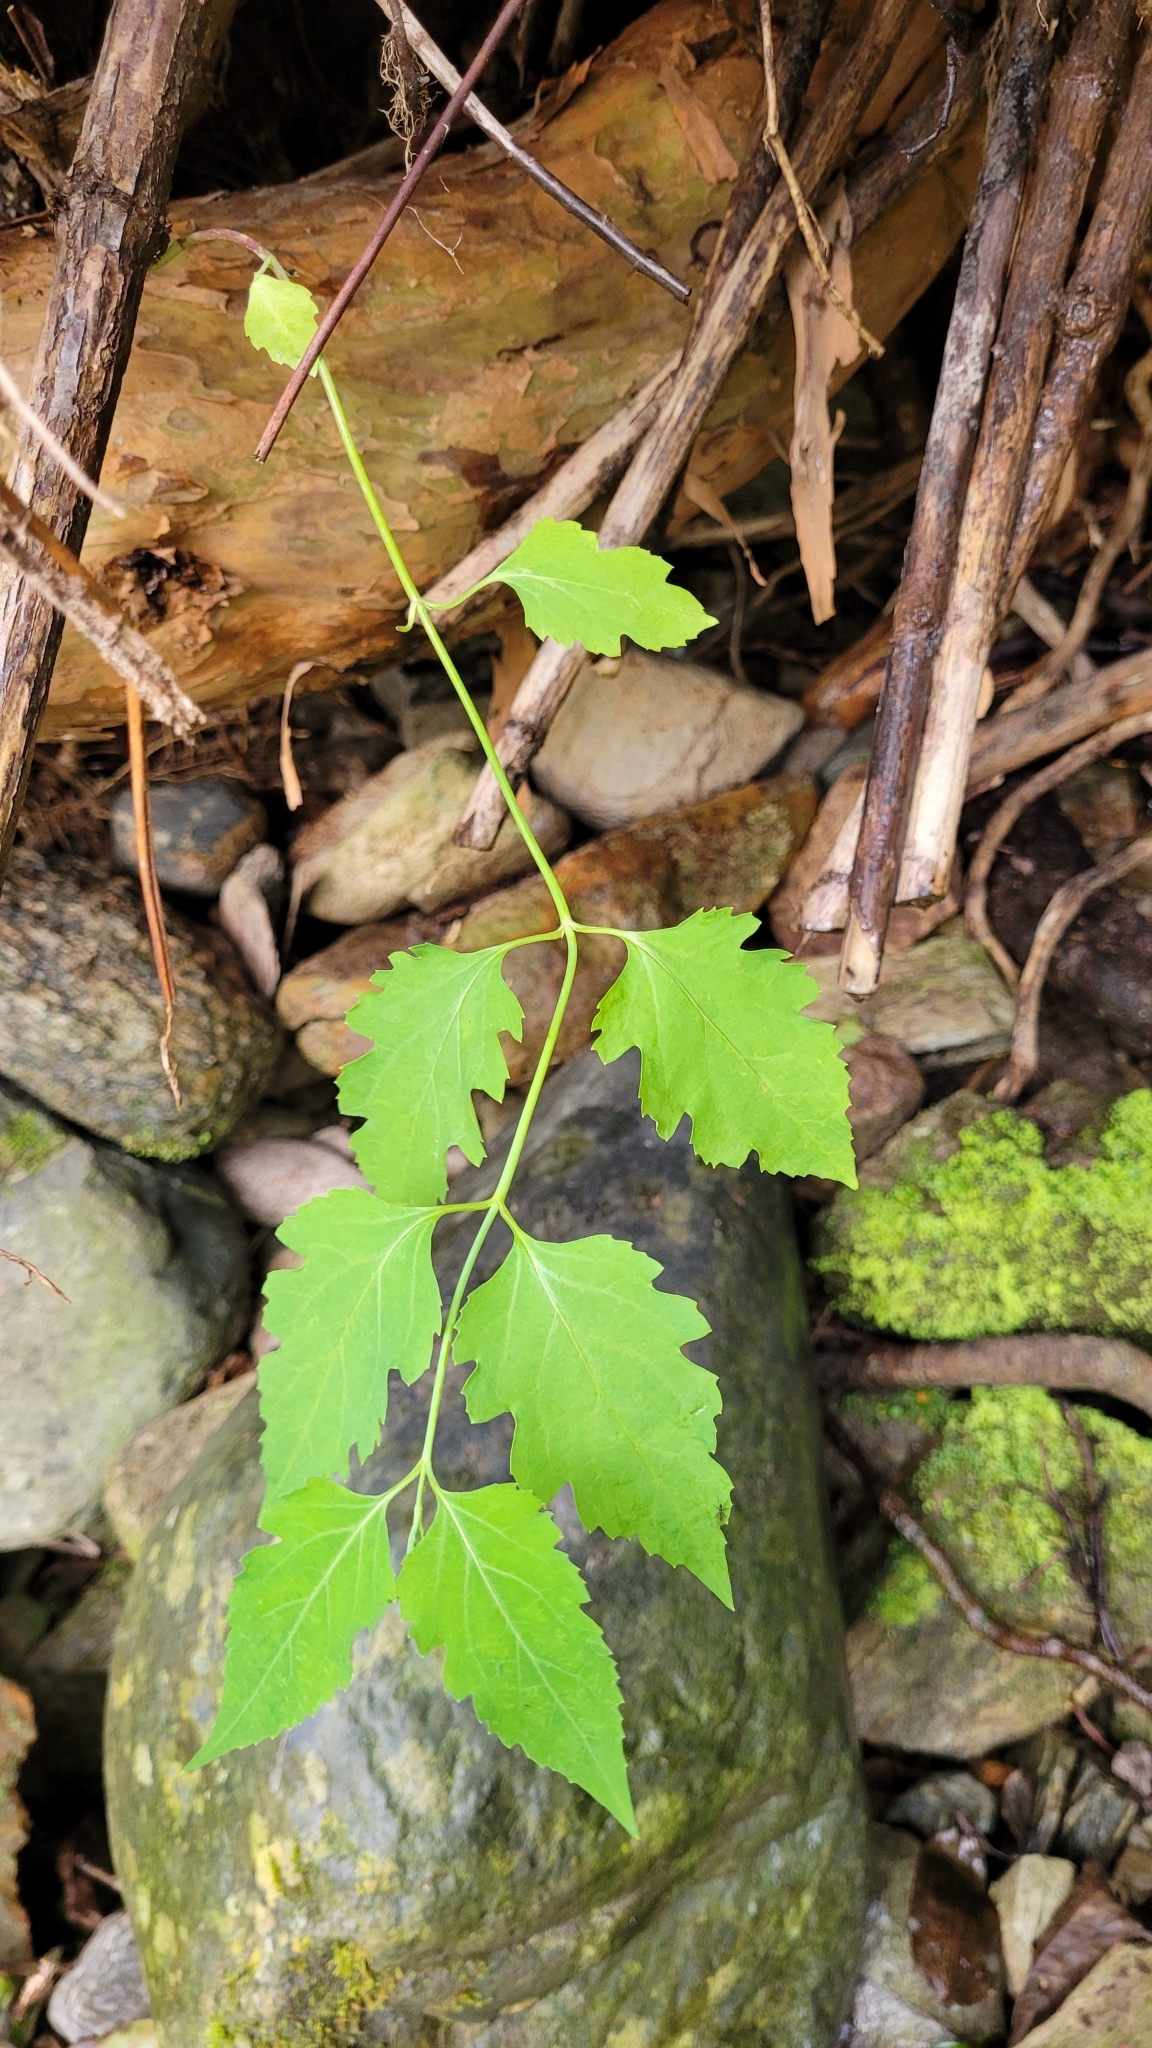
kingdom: Plantae
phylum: Tracheophyta
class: Magnoliopsida
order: Dipsacales
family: Caprifoliaceae
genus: Leycesteria
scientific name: Leycesteria formosa
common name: Himalayan honeysuckle
